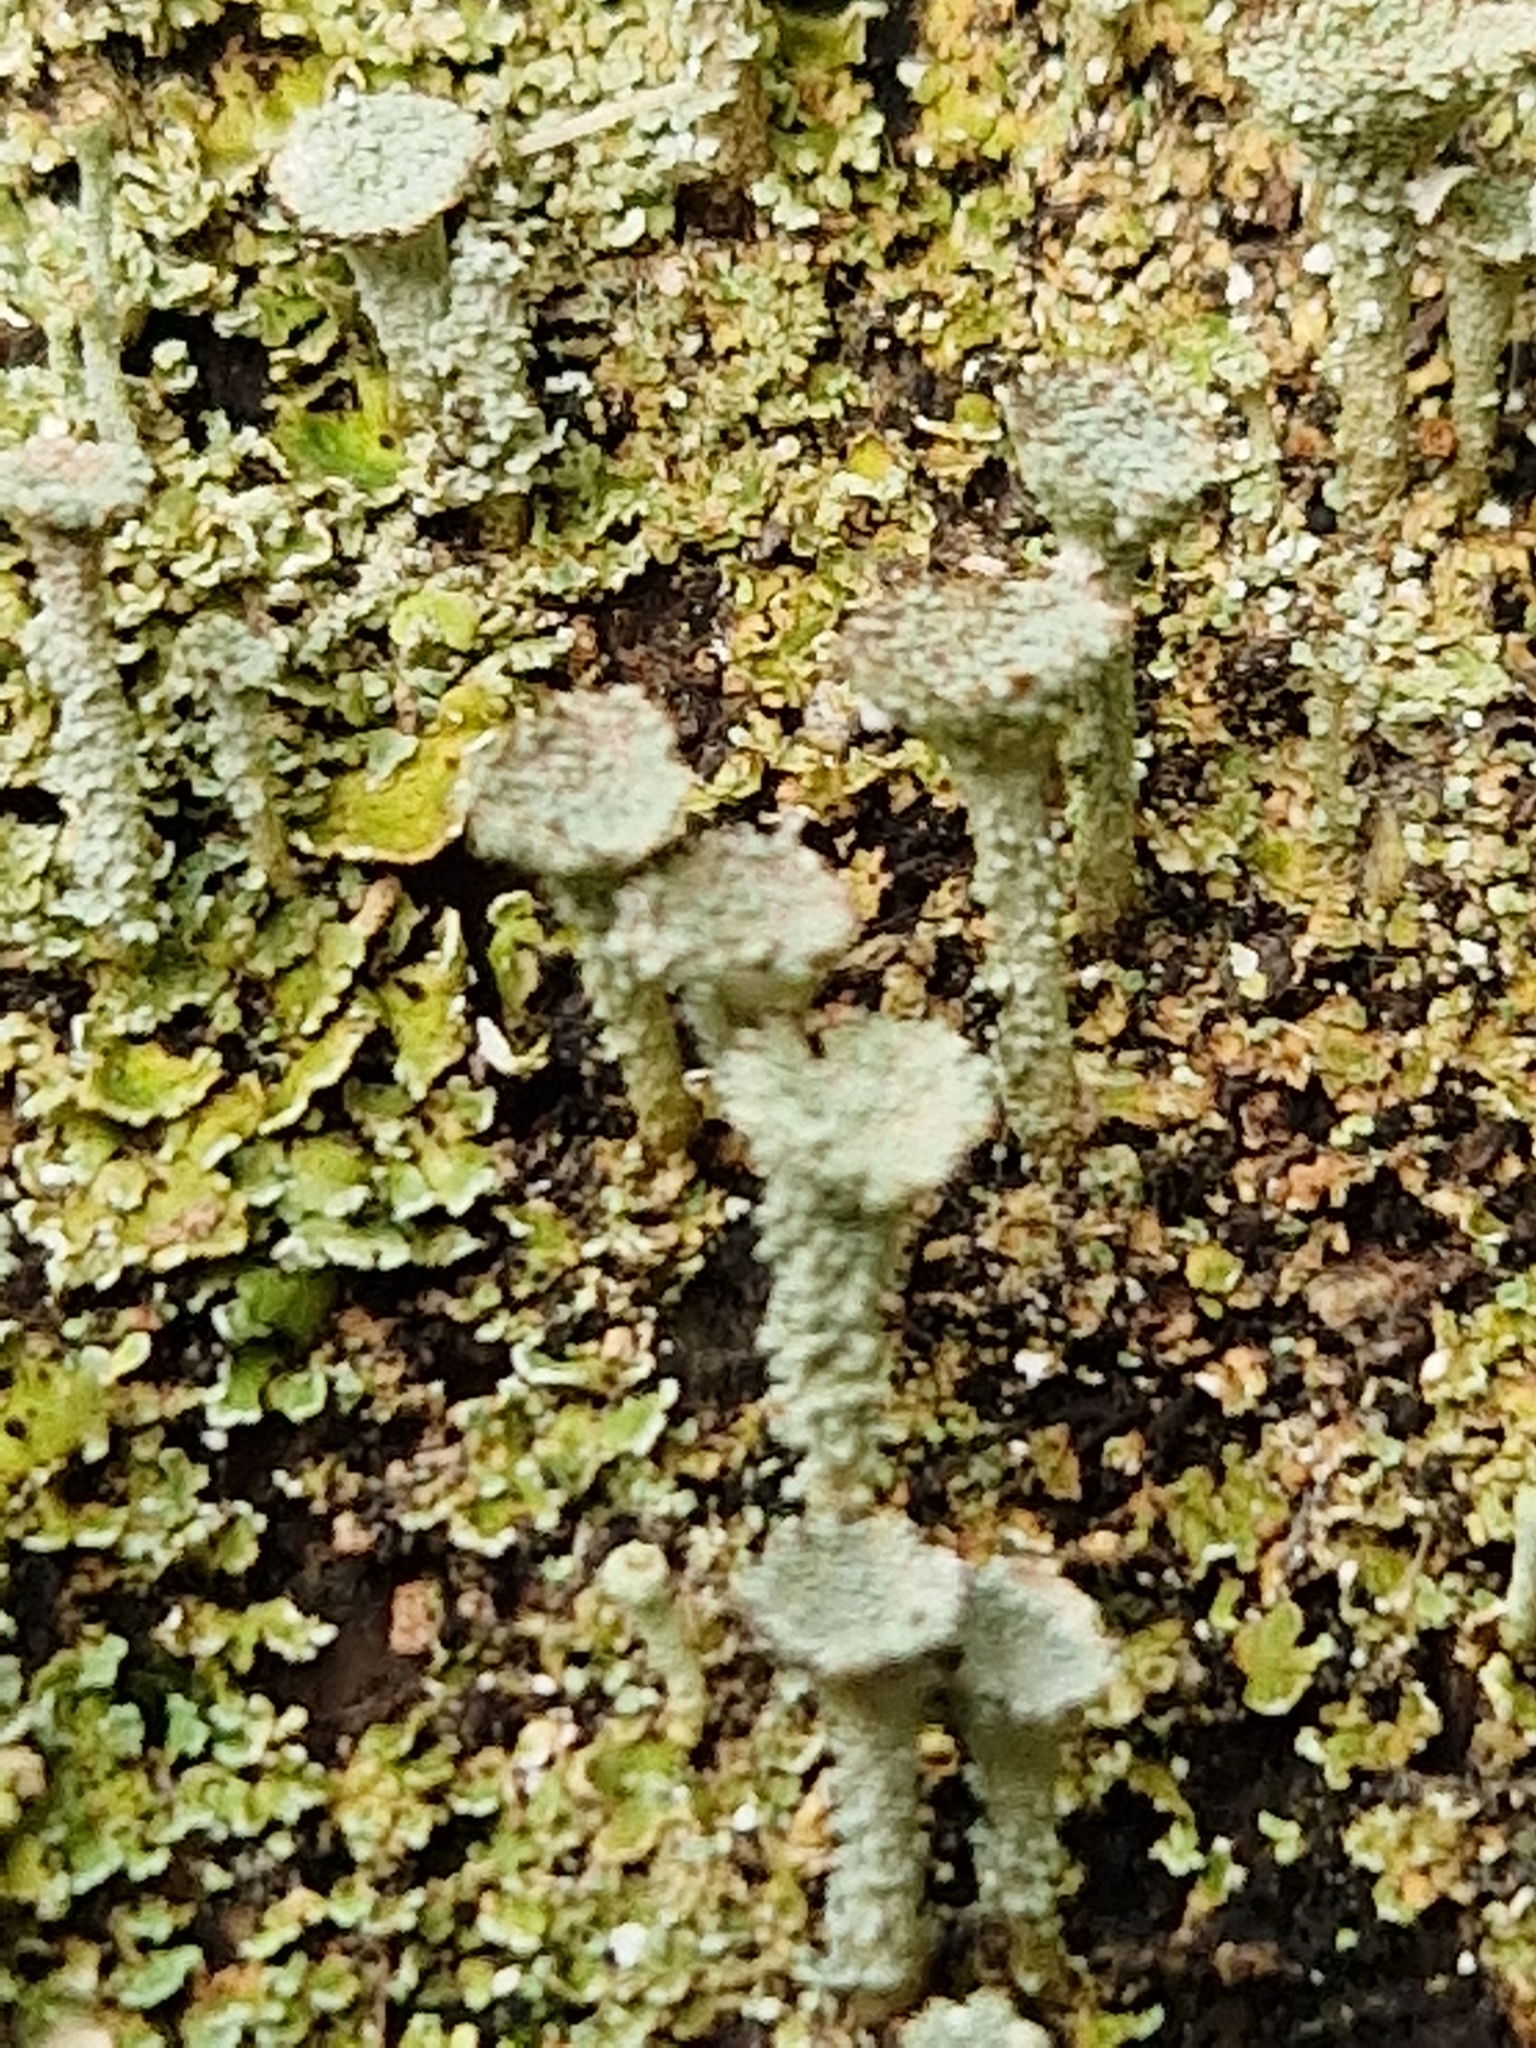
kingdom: Fungi
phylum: Ascomycota
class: Lecanoromycetes
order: Lecanorales
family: Cladoniaceae
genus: Cladonia
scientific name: Cladonia pyxidata
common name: Pebbled pixie cup
